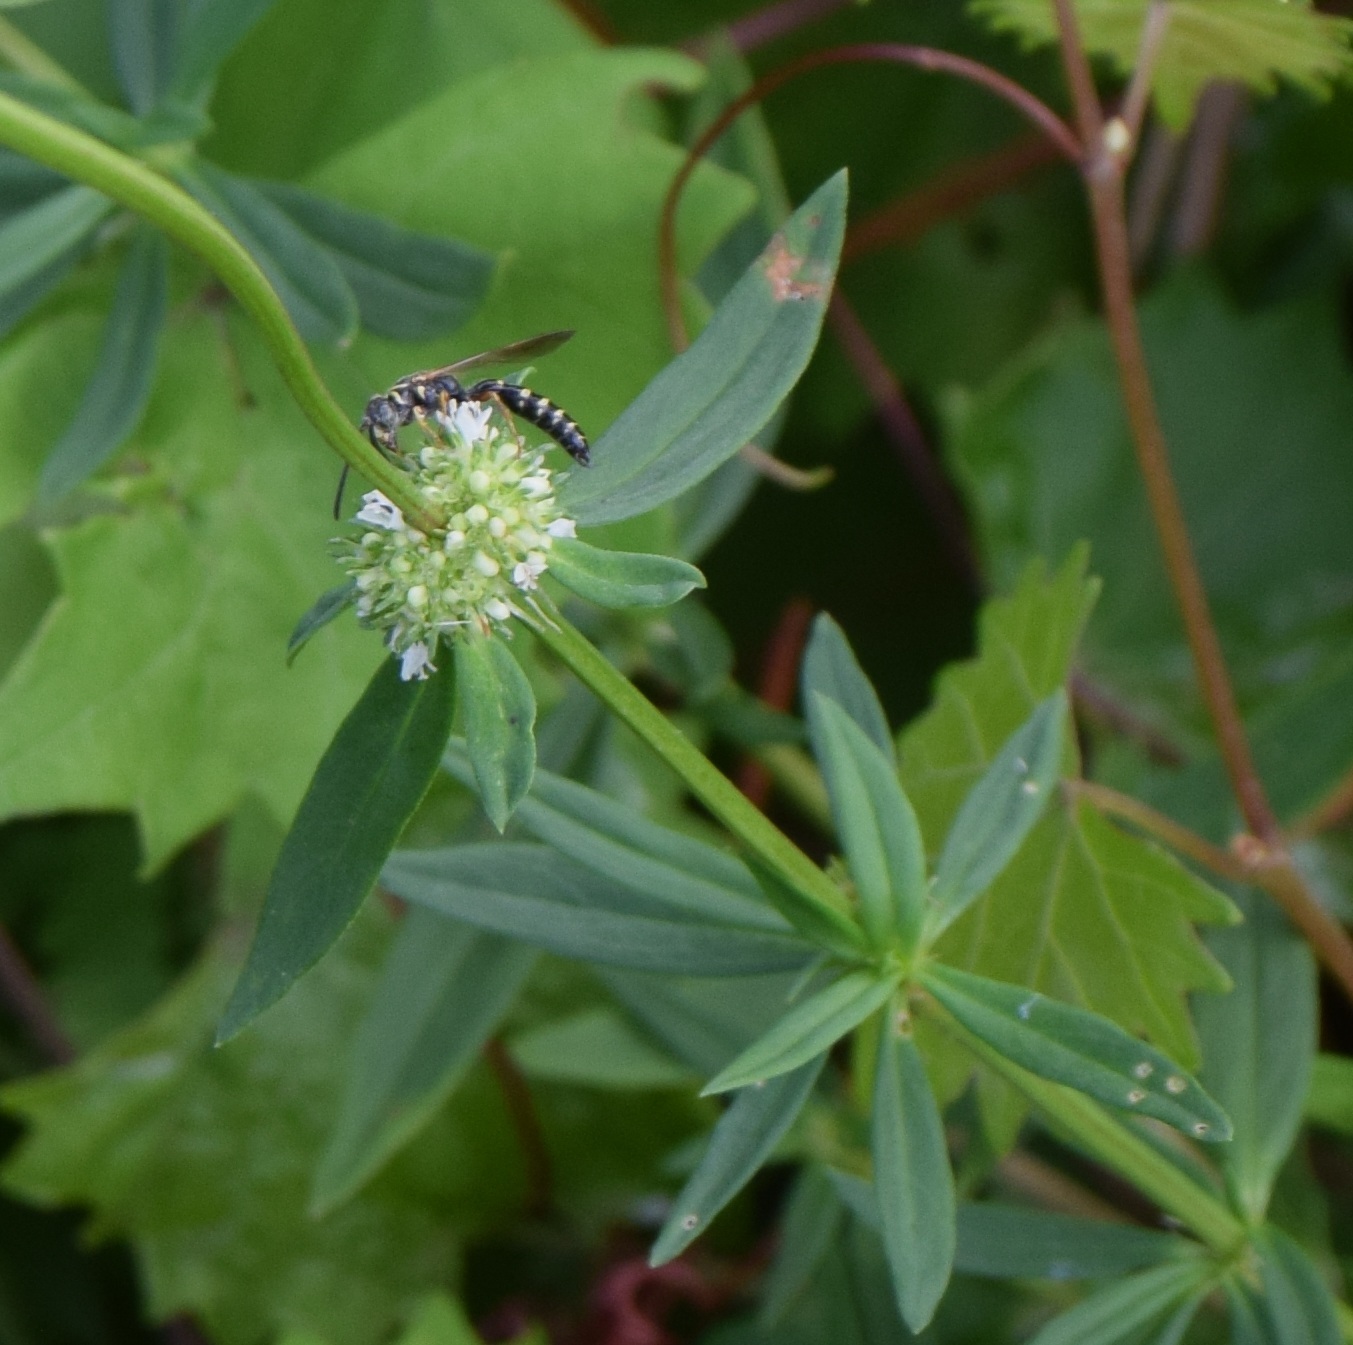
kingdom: Animalia
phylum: Arthropoda
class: Insecta
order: Hymenoptera
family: Tiphiidae
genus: Myzinum
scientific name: Myzinum
